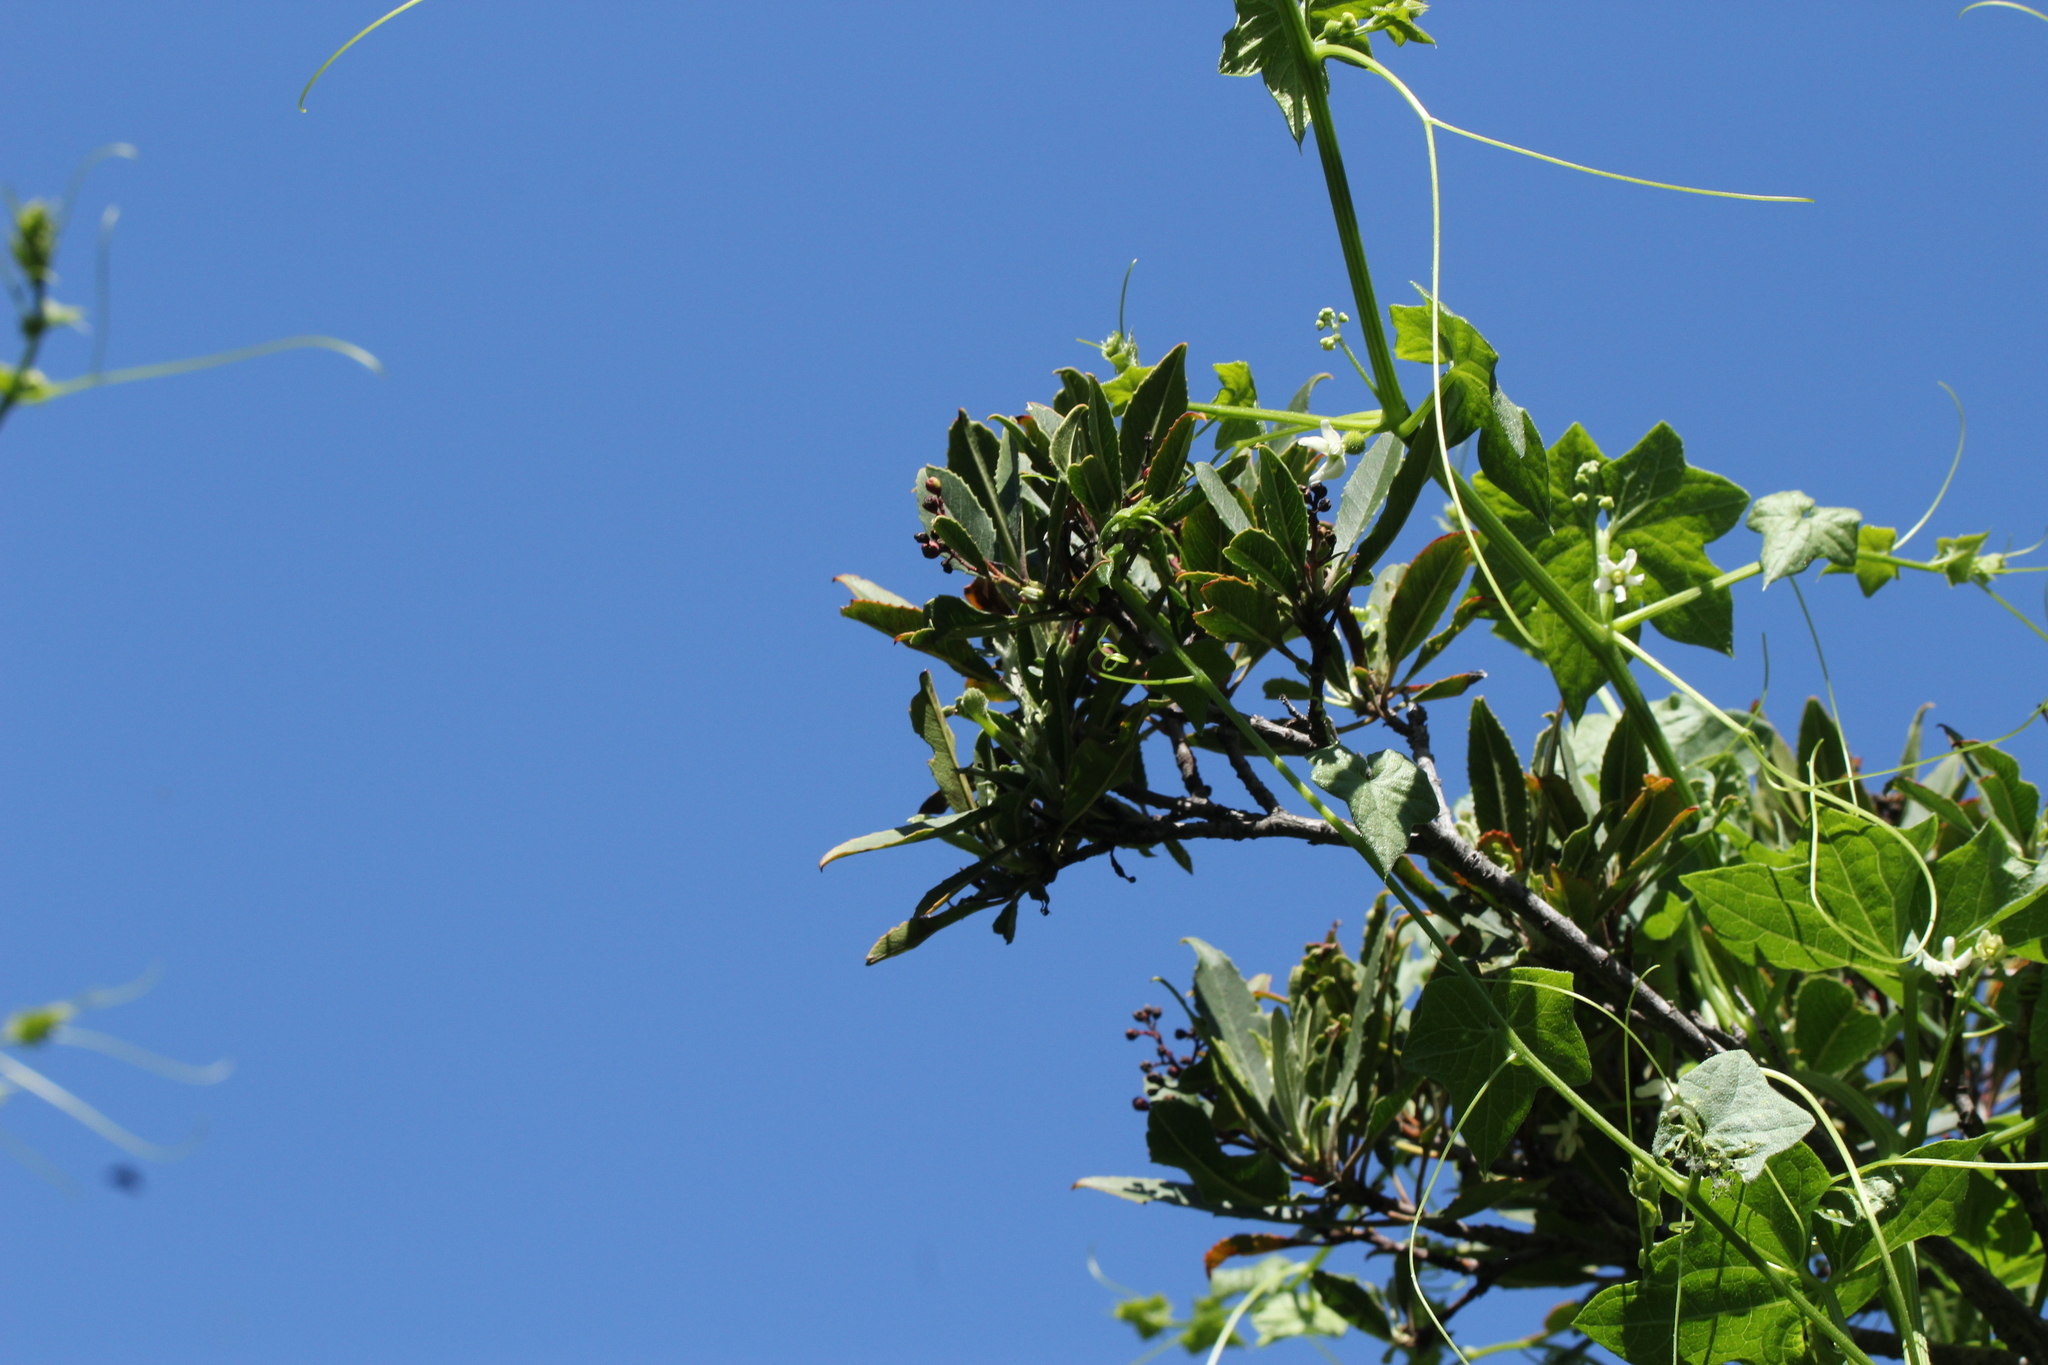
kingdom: Plantae
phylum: Tracheophyta
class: Magnoliopsida
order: Rosales
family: Rosaceae
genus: Heteromeles
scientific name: Heteromeles arbutifolia
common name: California-holly
